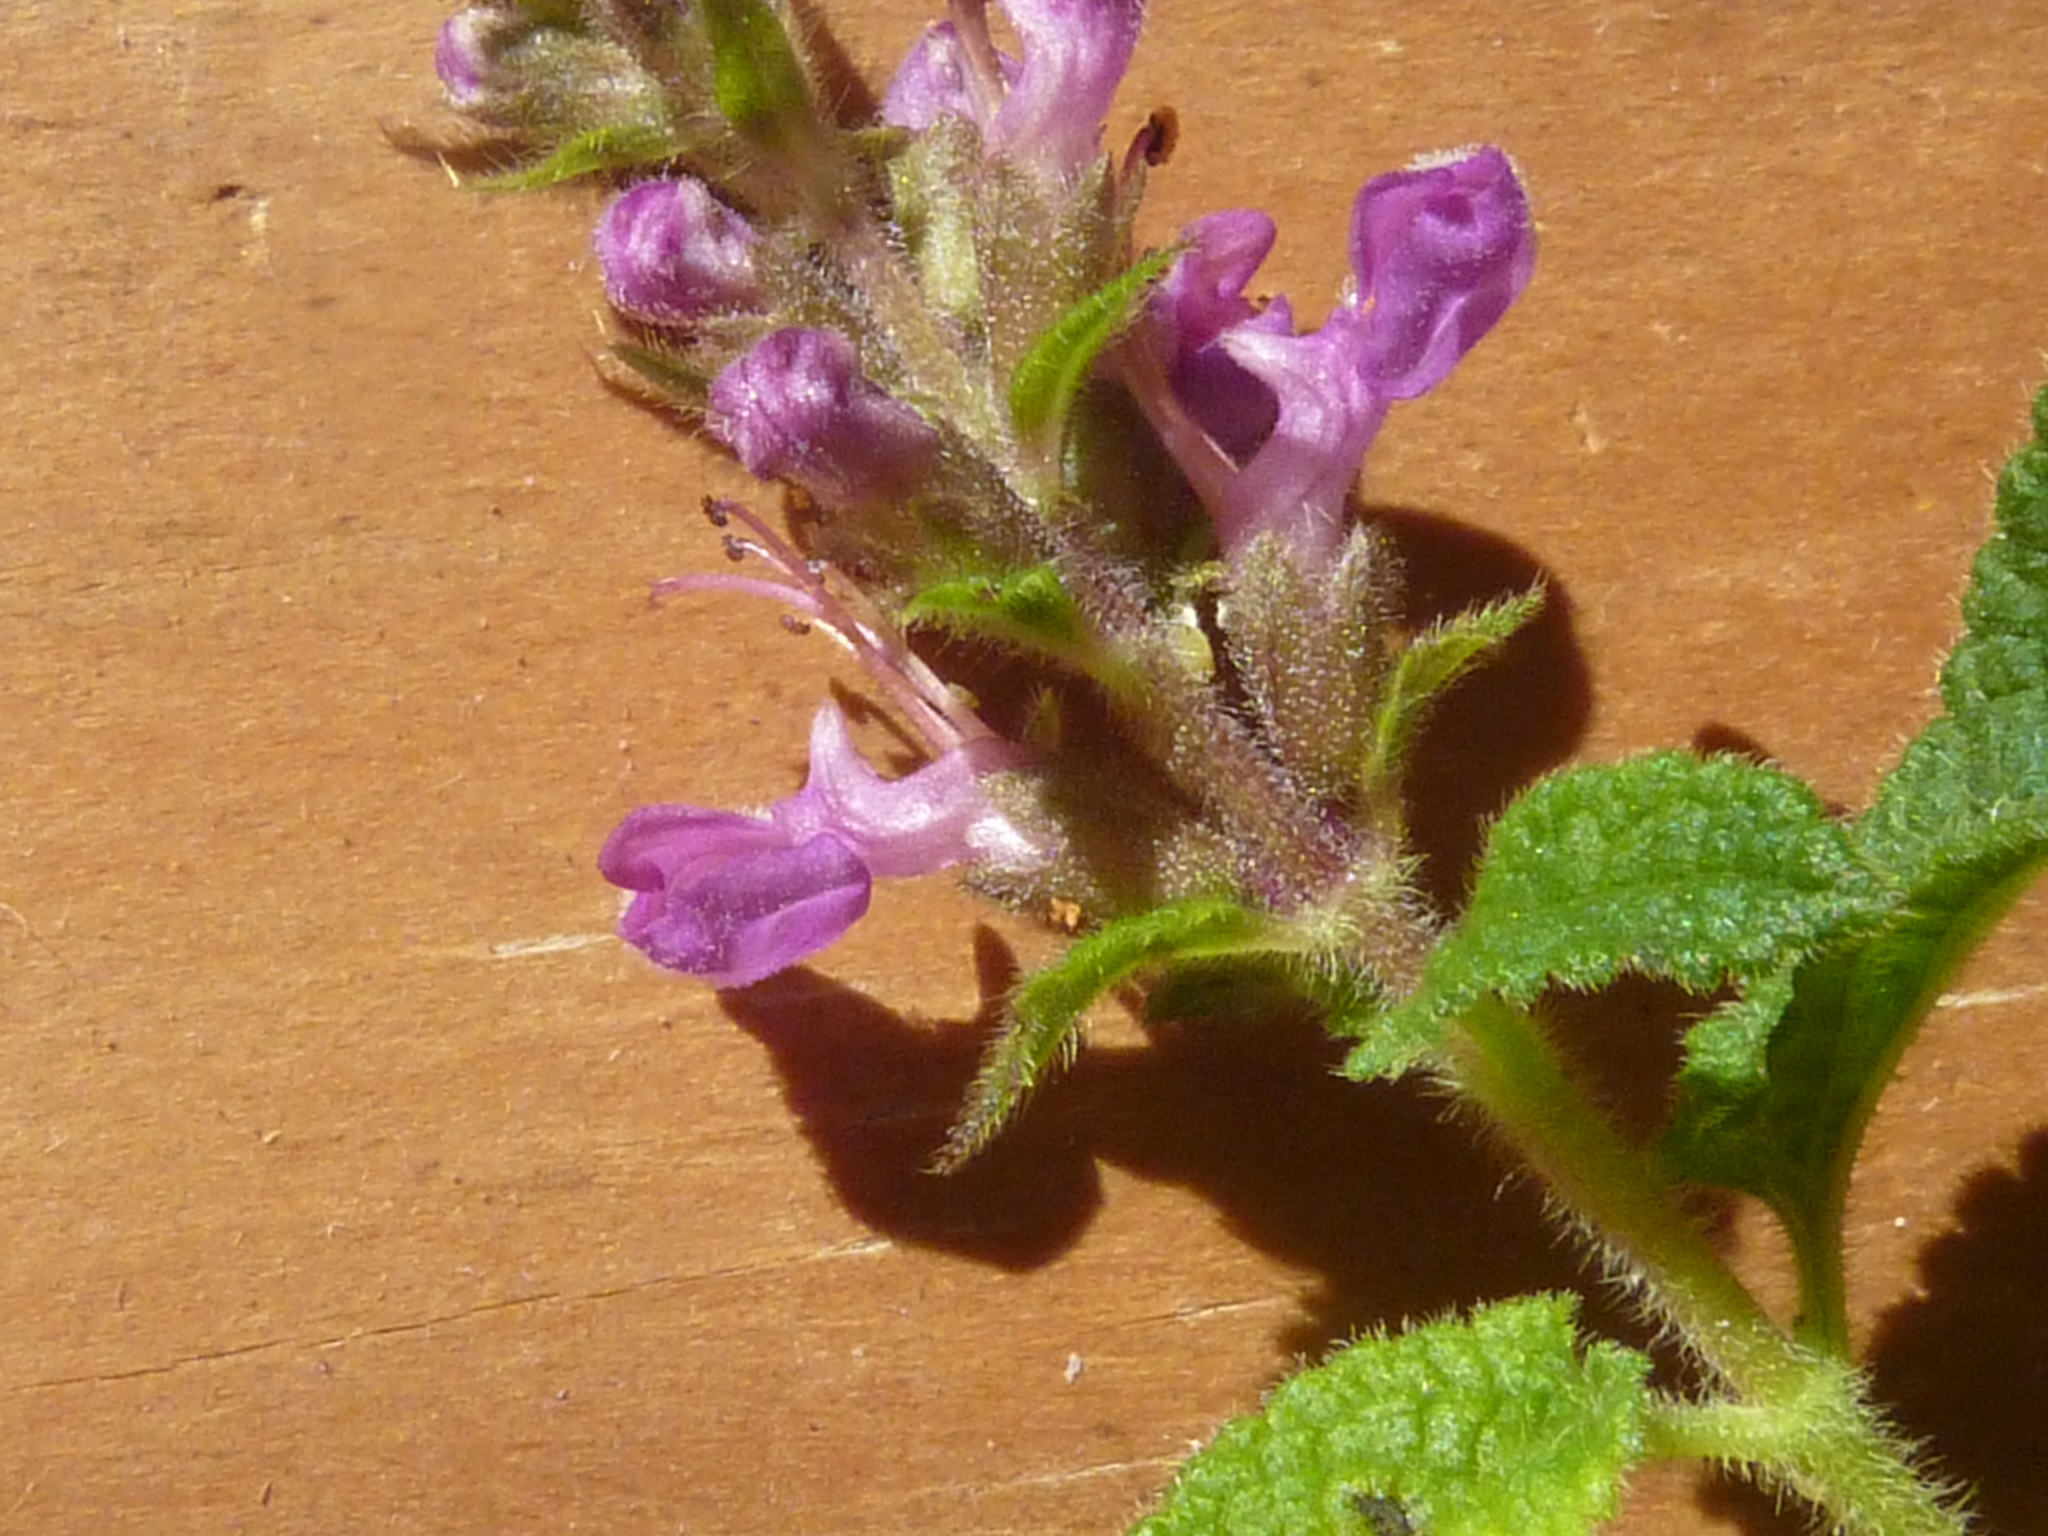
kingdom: Plantae
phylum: Tracheophyta
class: Magnoliopsida
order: Lamiales
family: Lamiaceae
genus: Teucrium
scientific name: Teucrium argutum
